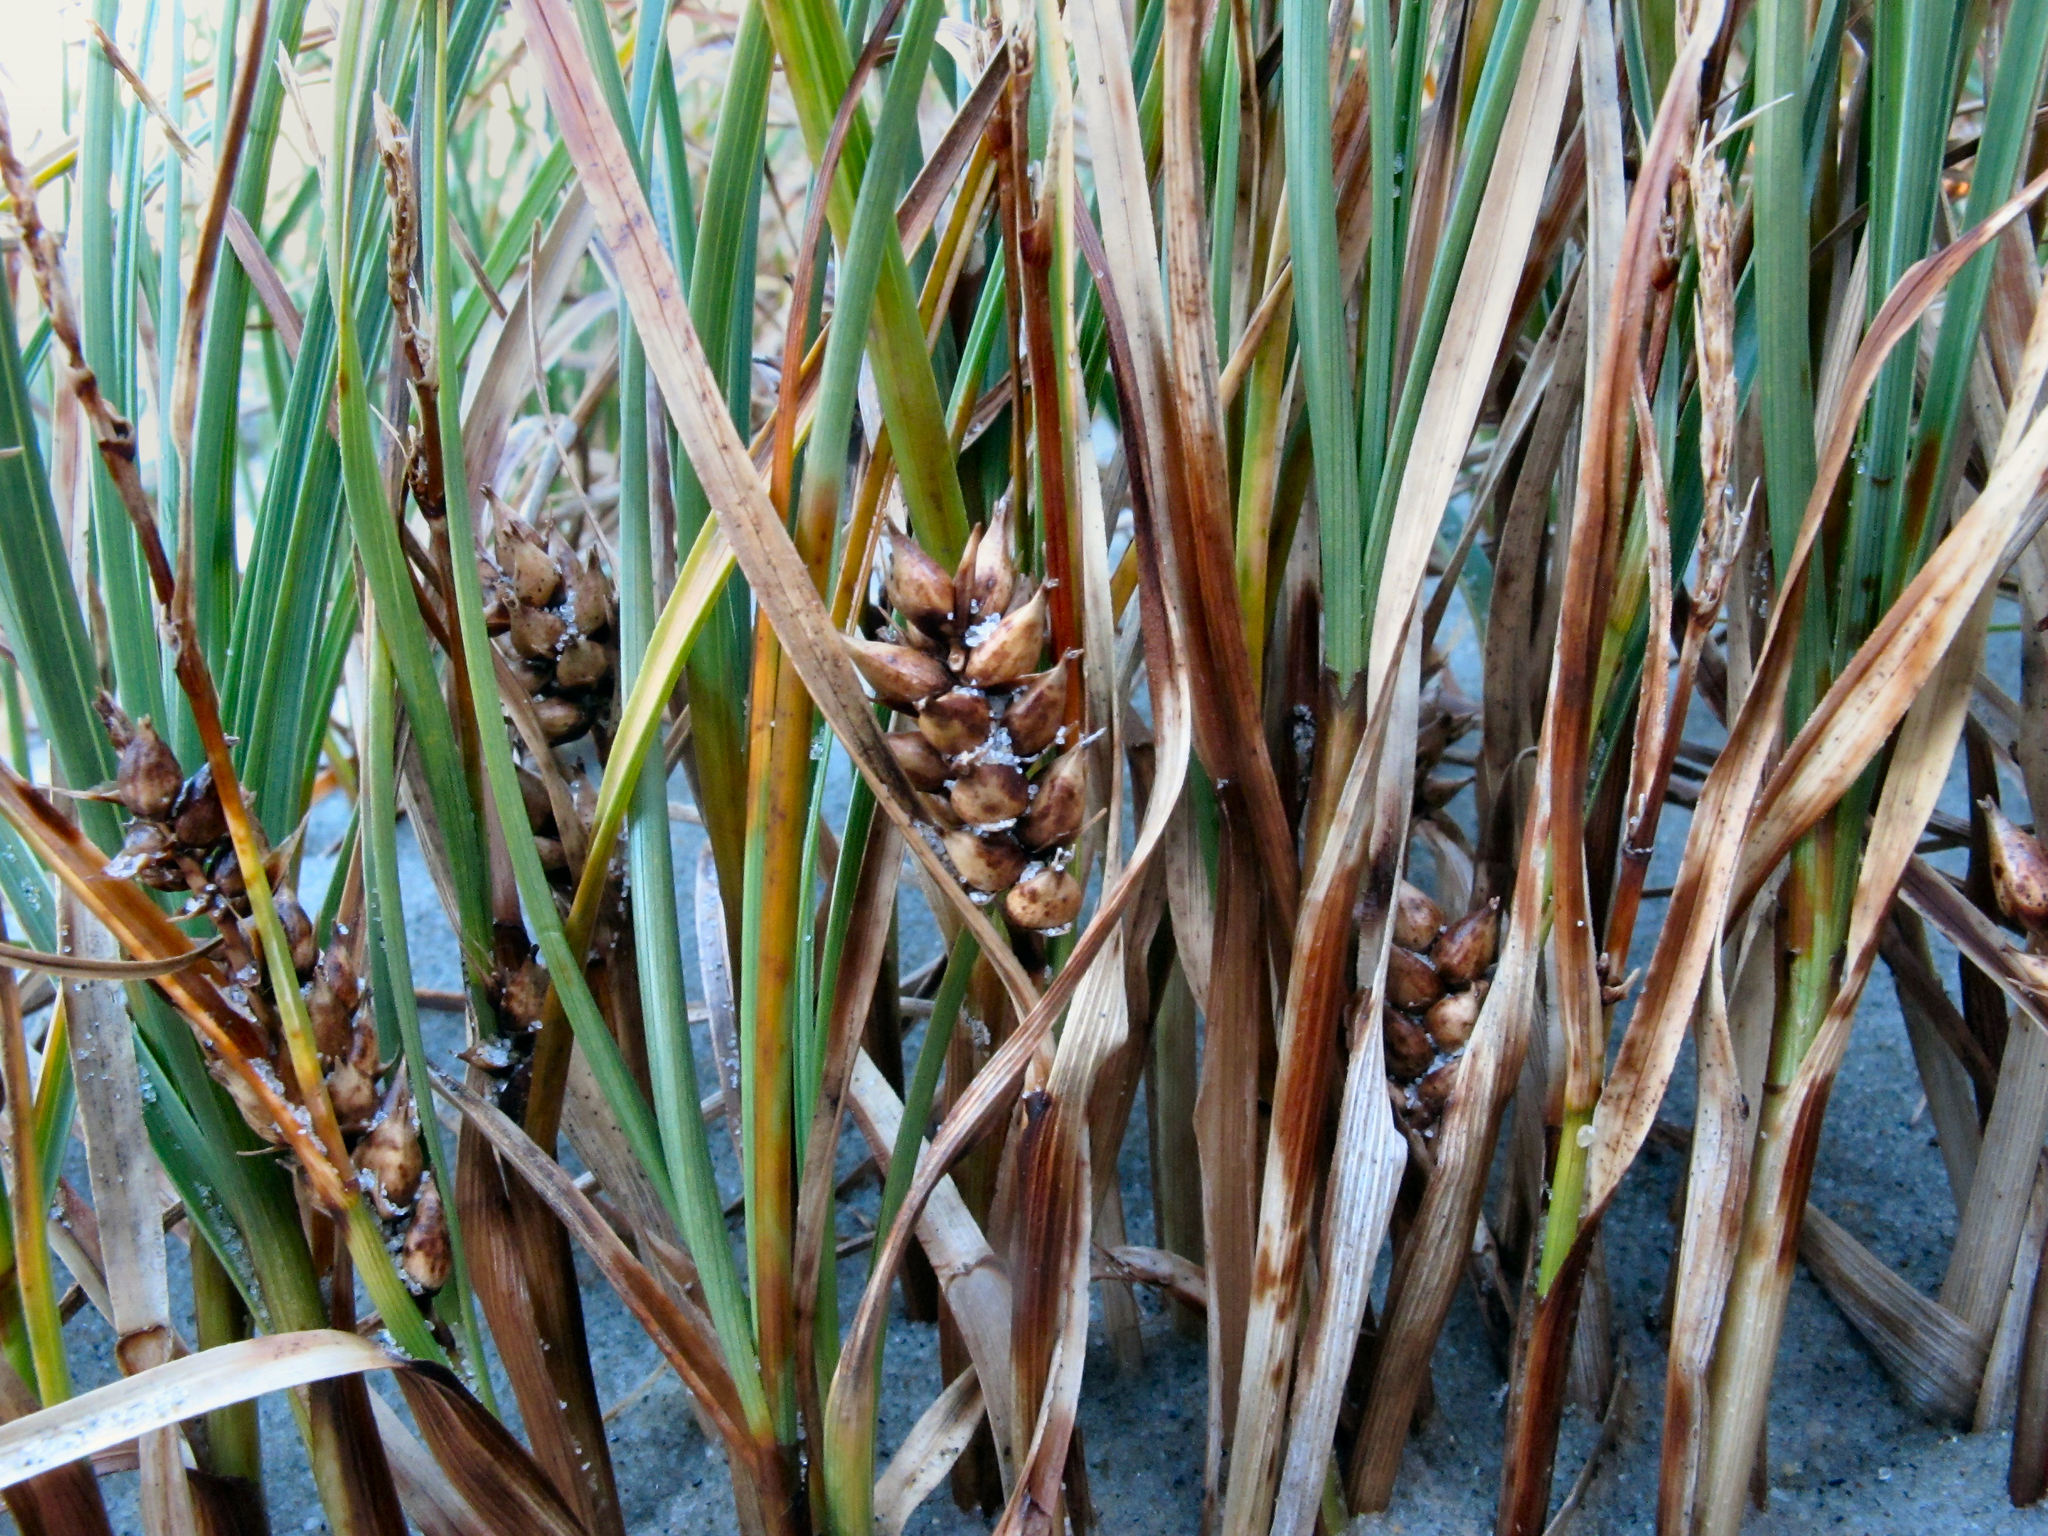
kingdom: Plantae
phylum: Tracheophyta
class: Liliopsida
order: Poales
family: Cyperaceae
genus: Carex
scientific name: Carex pumila
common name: Dwarf sedge
